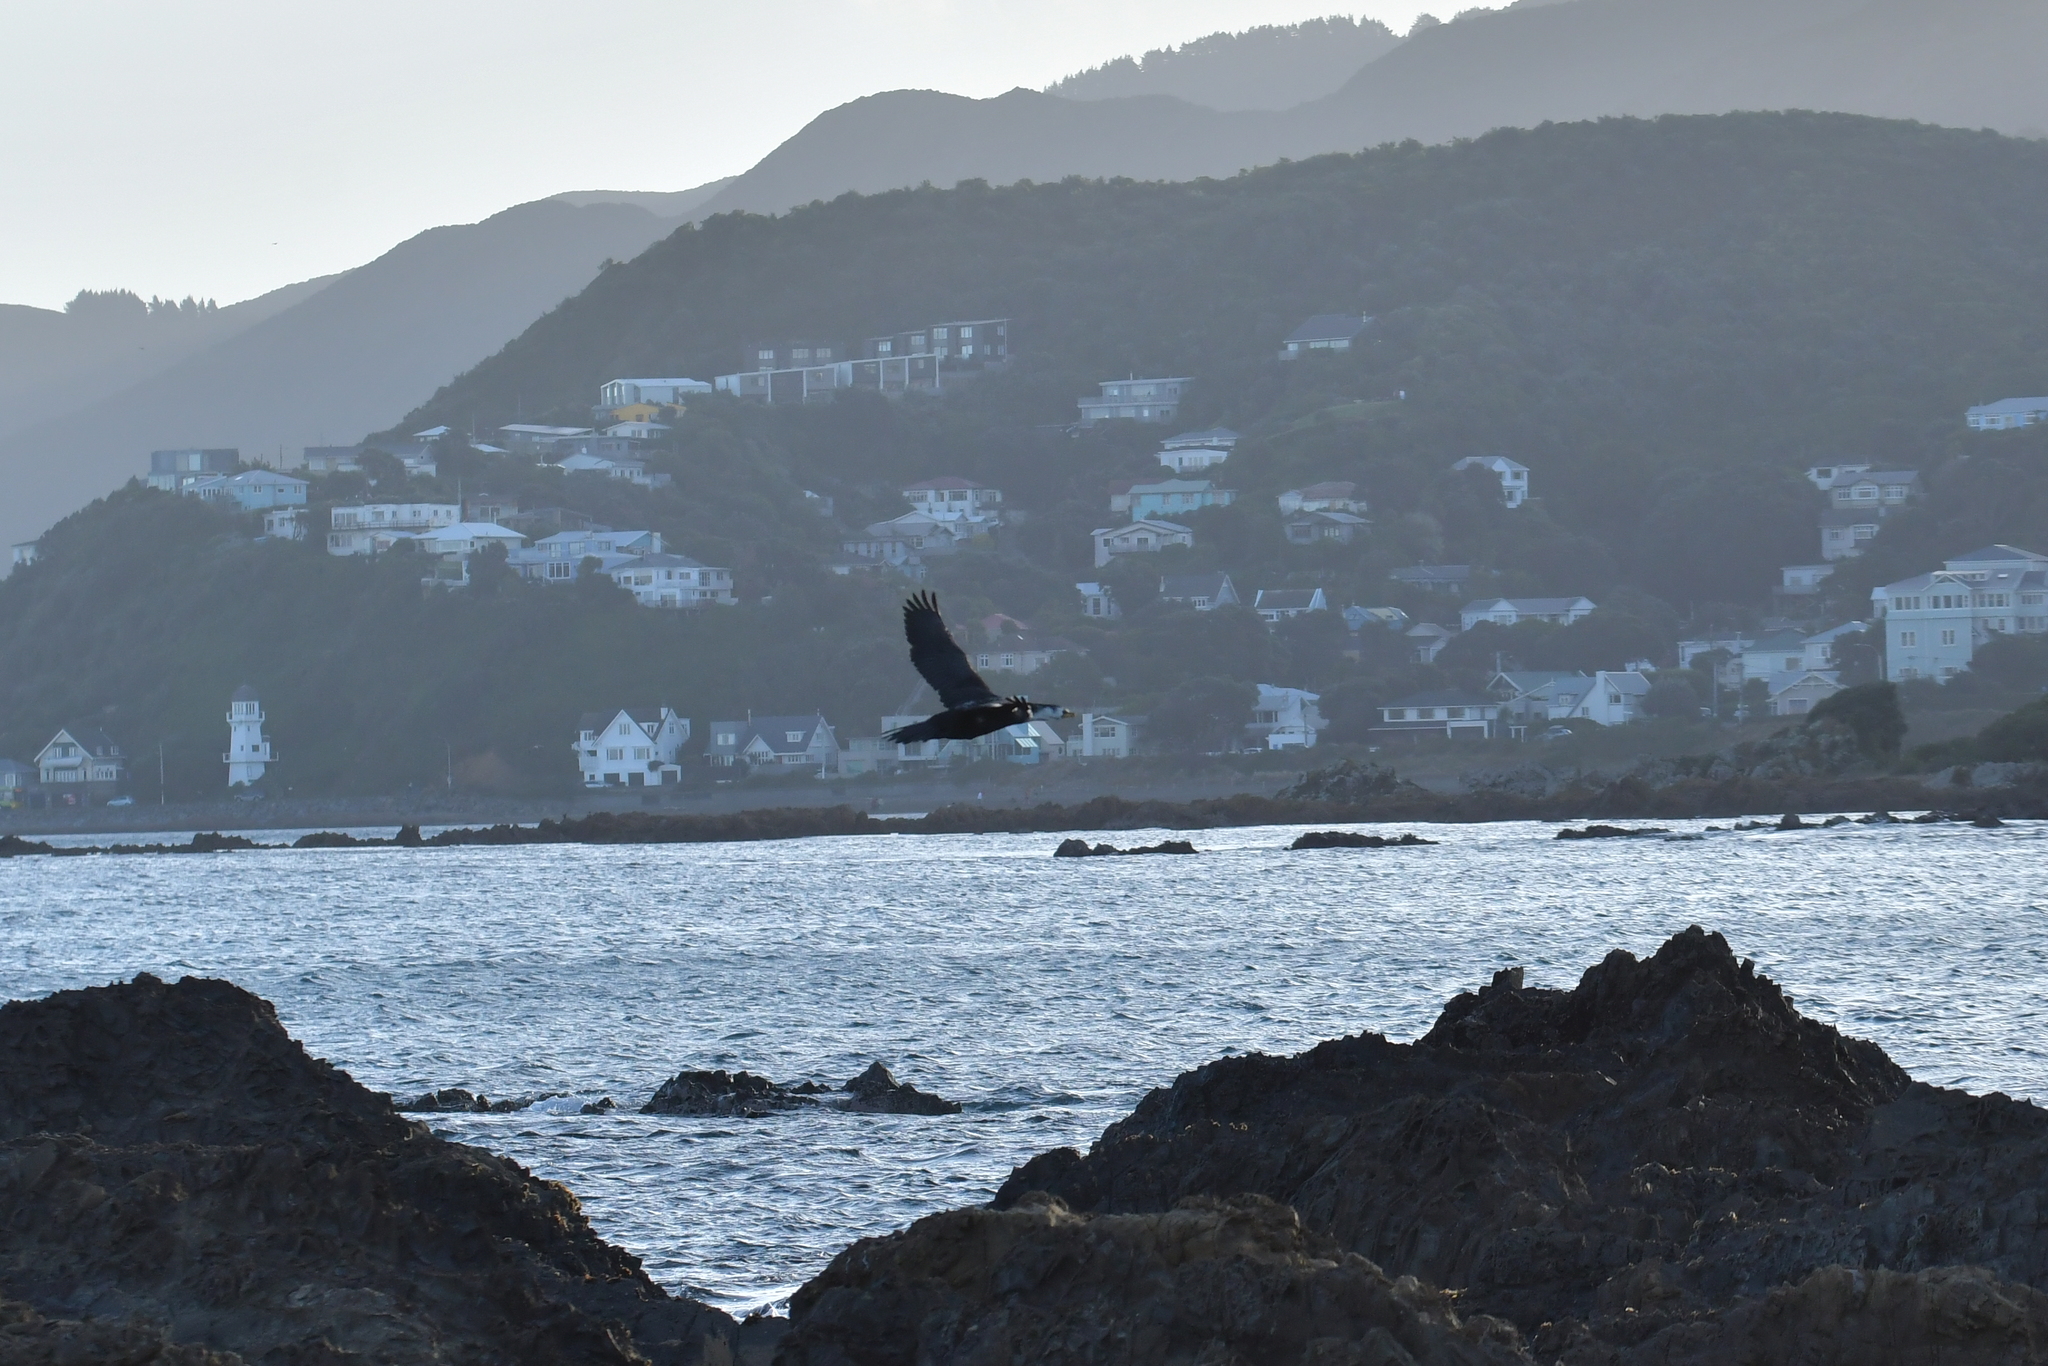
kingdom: Animalia
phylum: Chordata
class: Aves
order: Suliformes
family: Phalacrocoracidae
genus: Microcarbo
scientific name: Microcarbo melanoleucos
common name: Little pied cormorant
